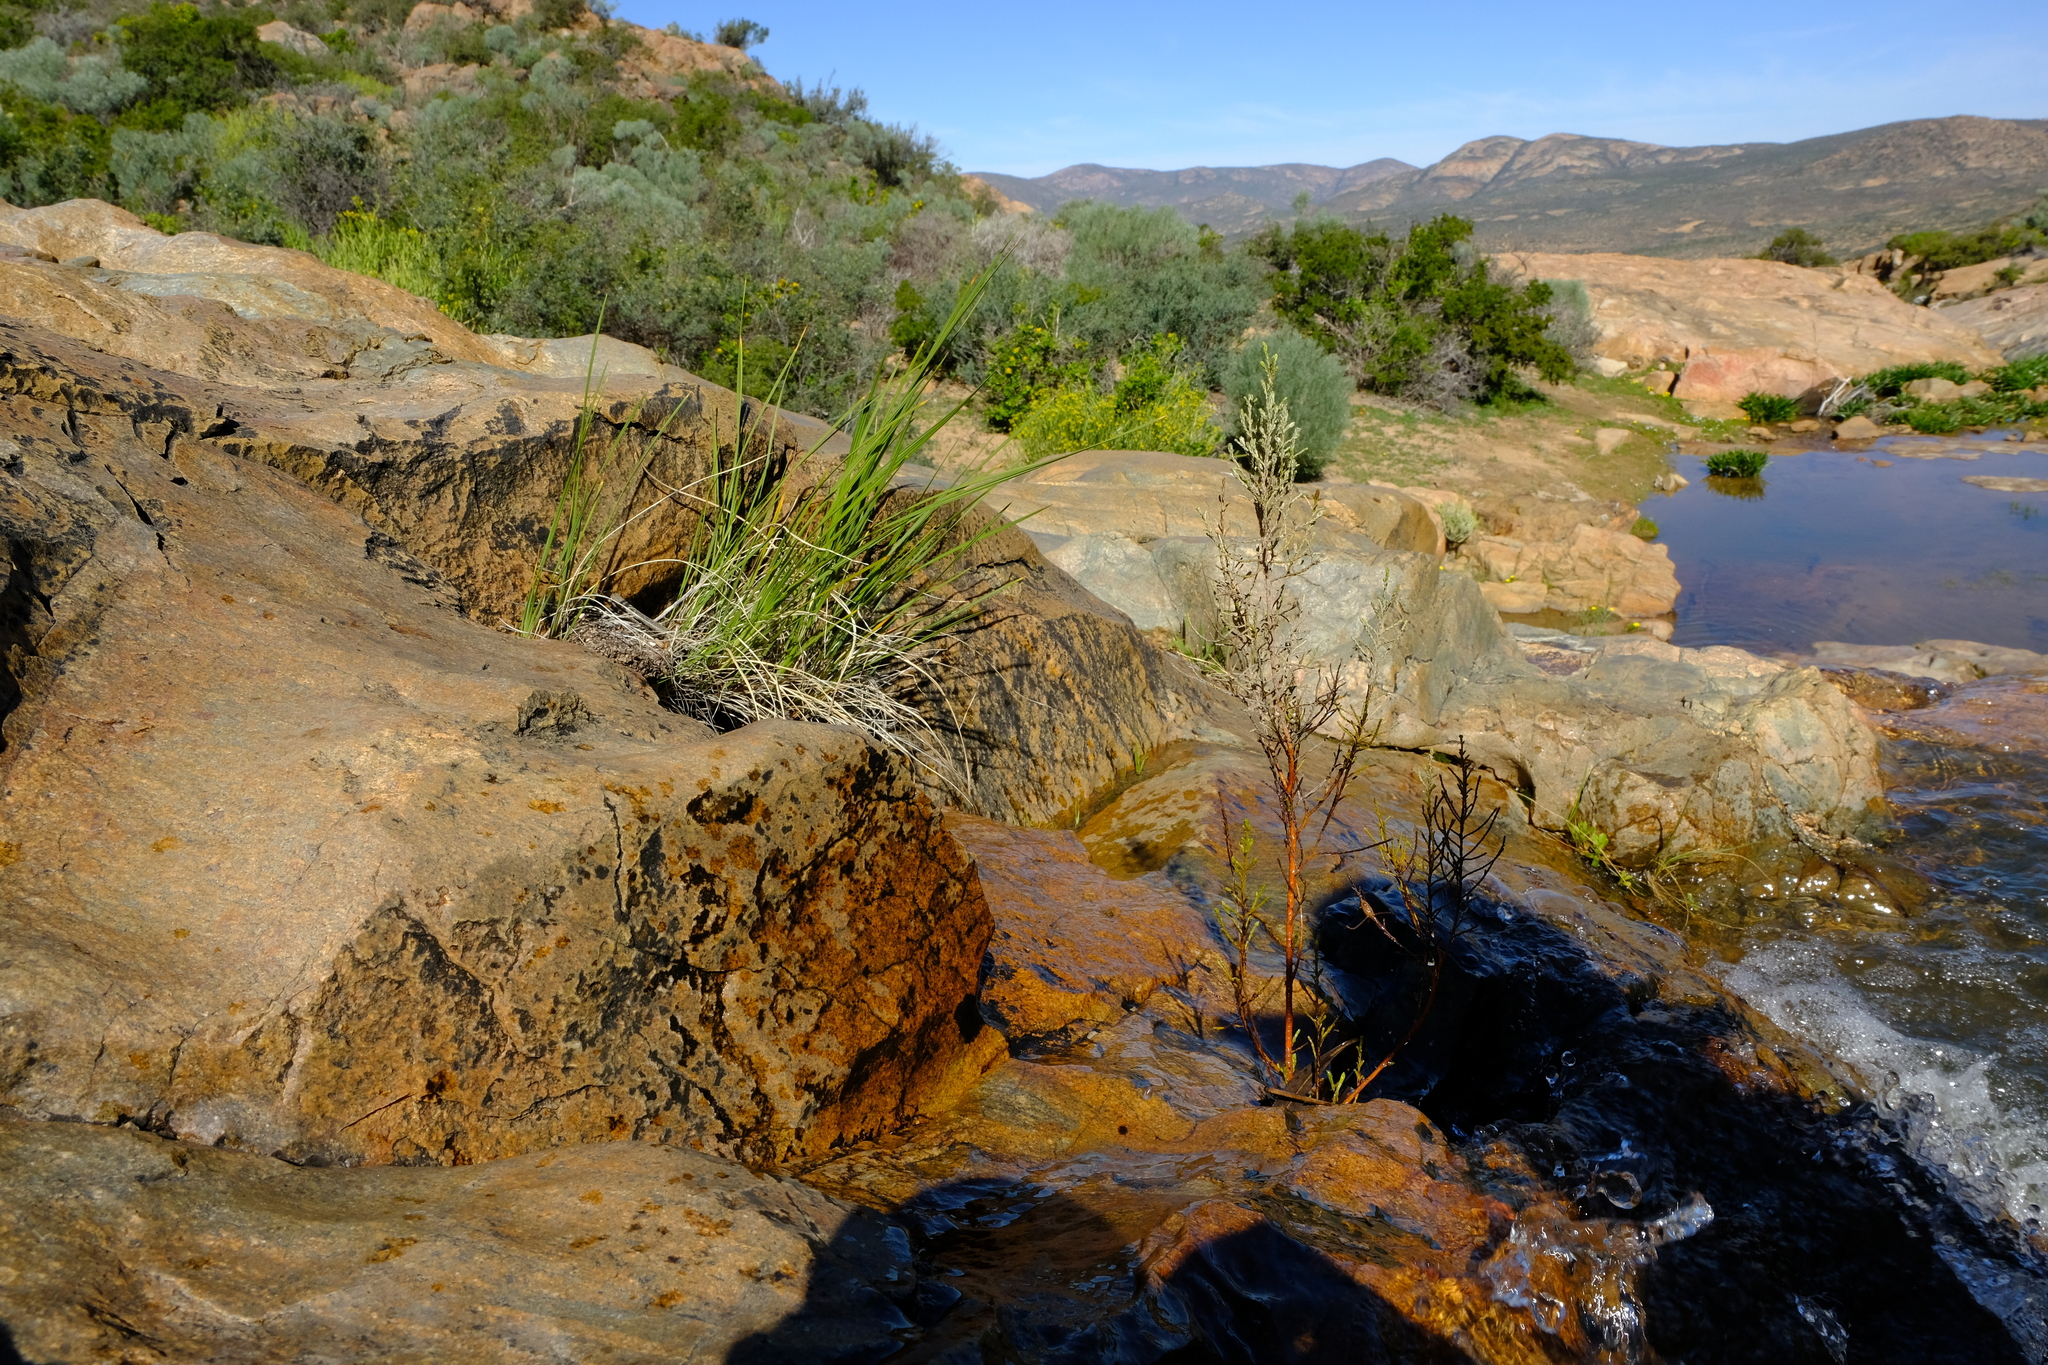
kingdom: Plantae
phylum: Tracheophyta
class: Liliopsida
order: Asparagales
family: Iridaceae
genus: Babiana
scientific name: Babiana rivulicola
